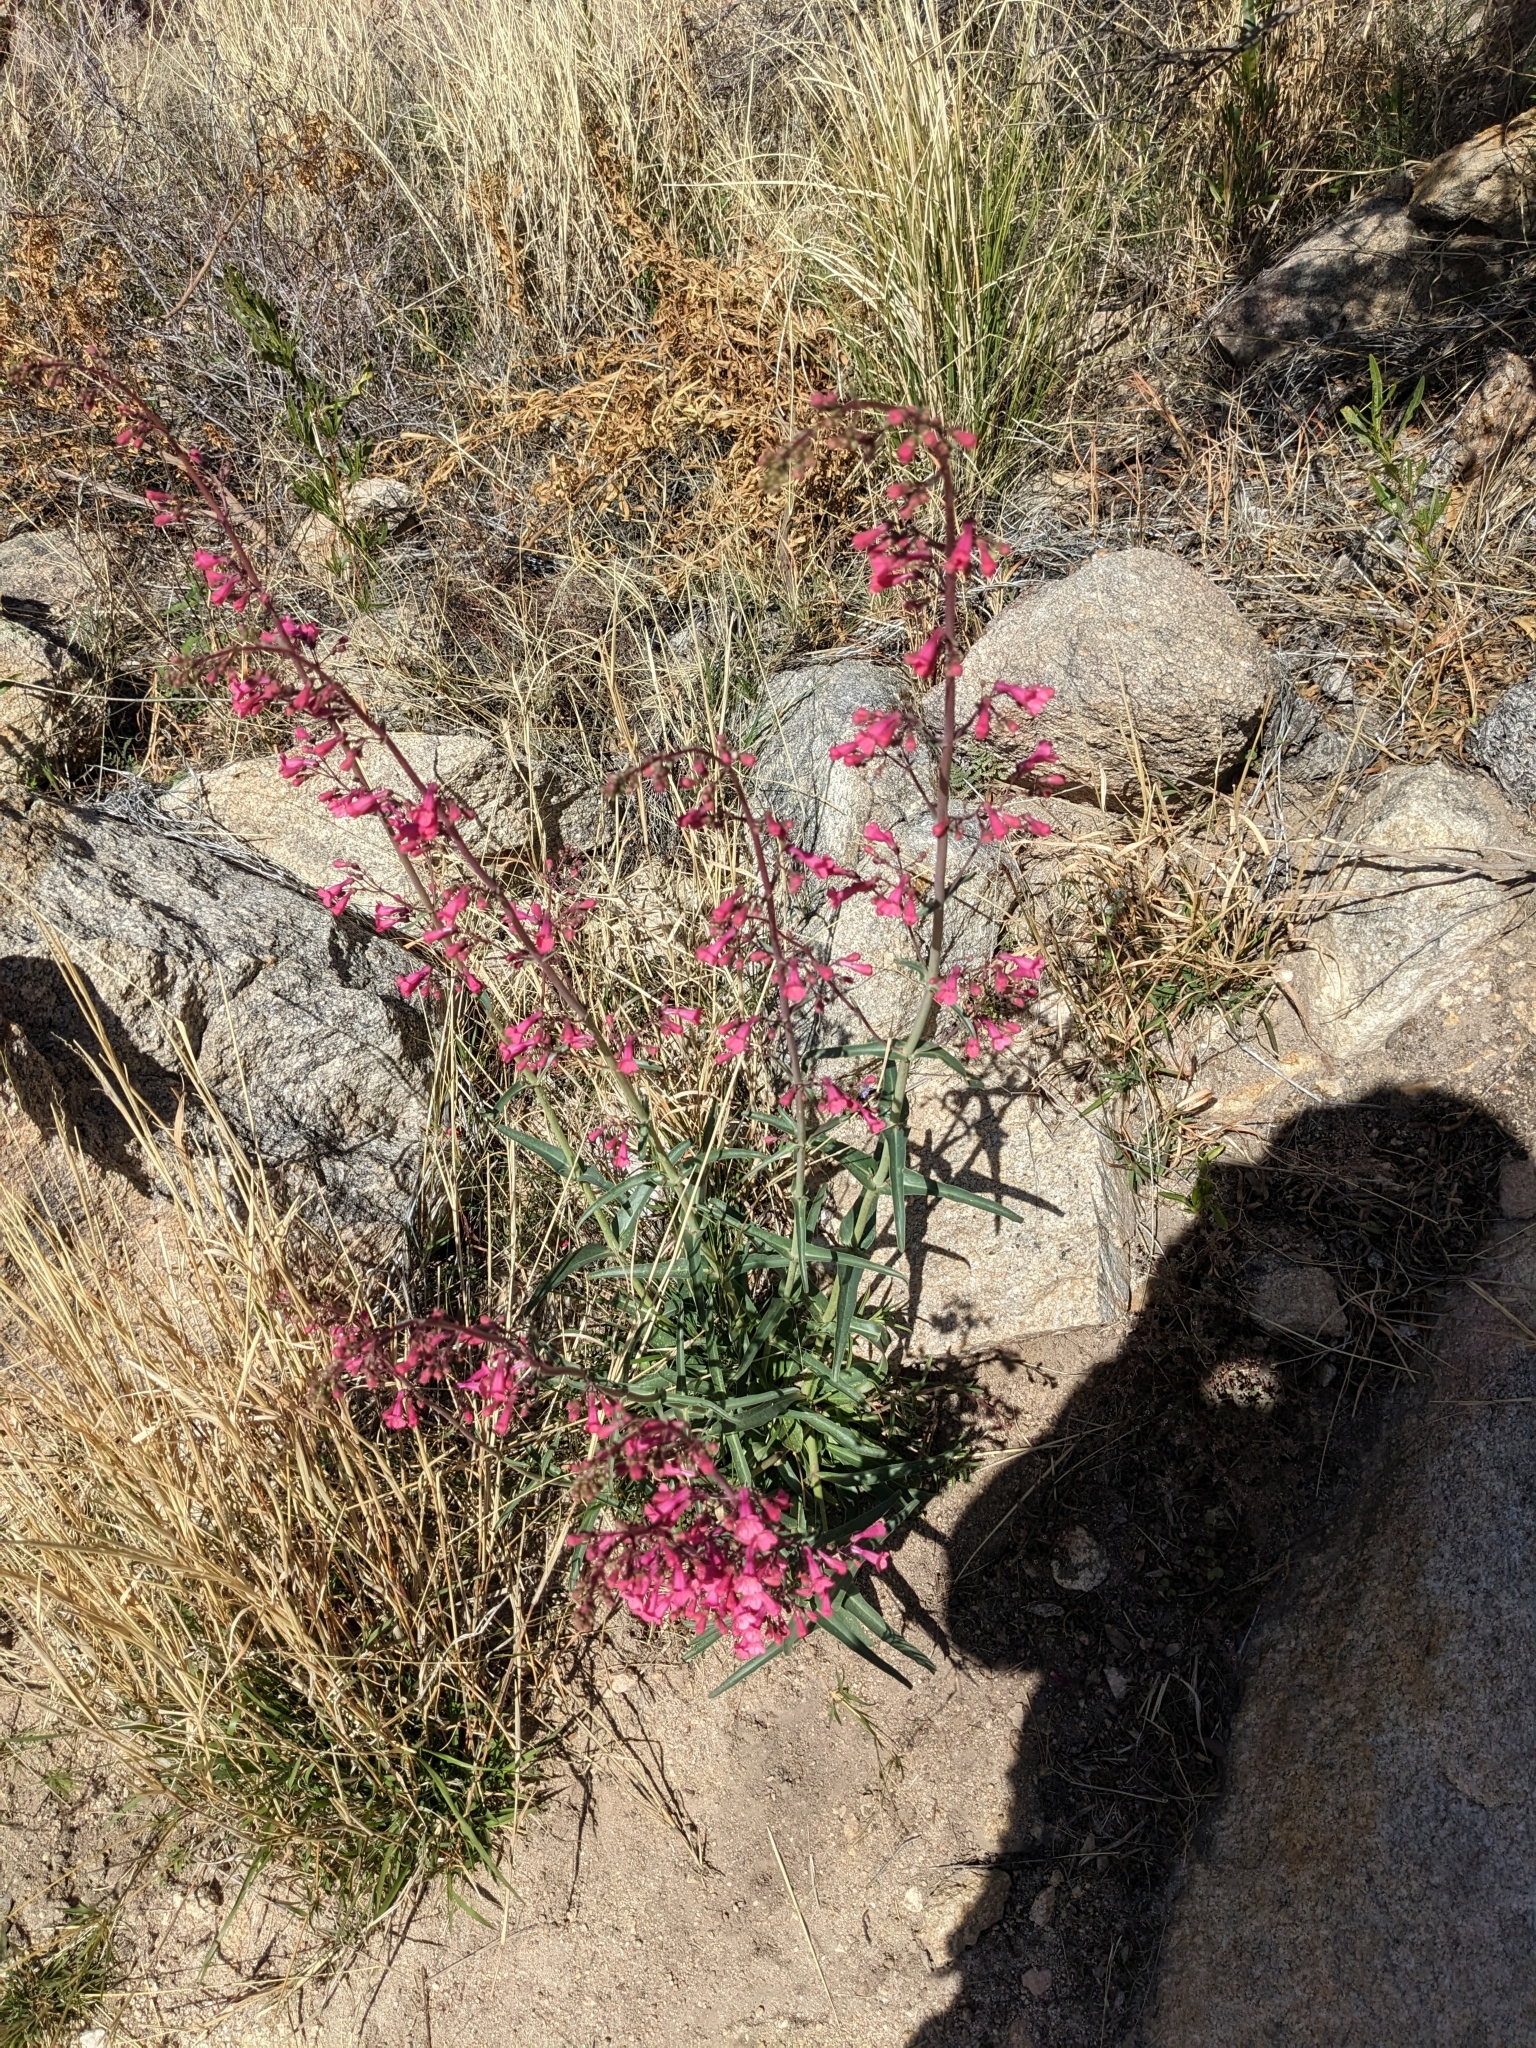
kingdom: Plantae
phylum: Tracheophyta
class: Magnoliopsida
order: Lamiales
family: Plantaginaceae
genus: Penstemon
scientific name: Penstemon parryi
